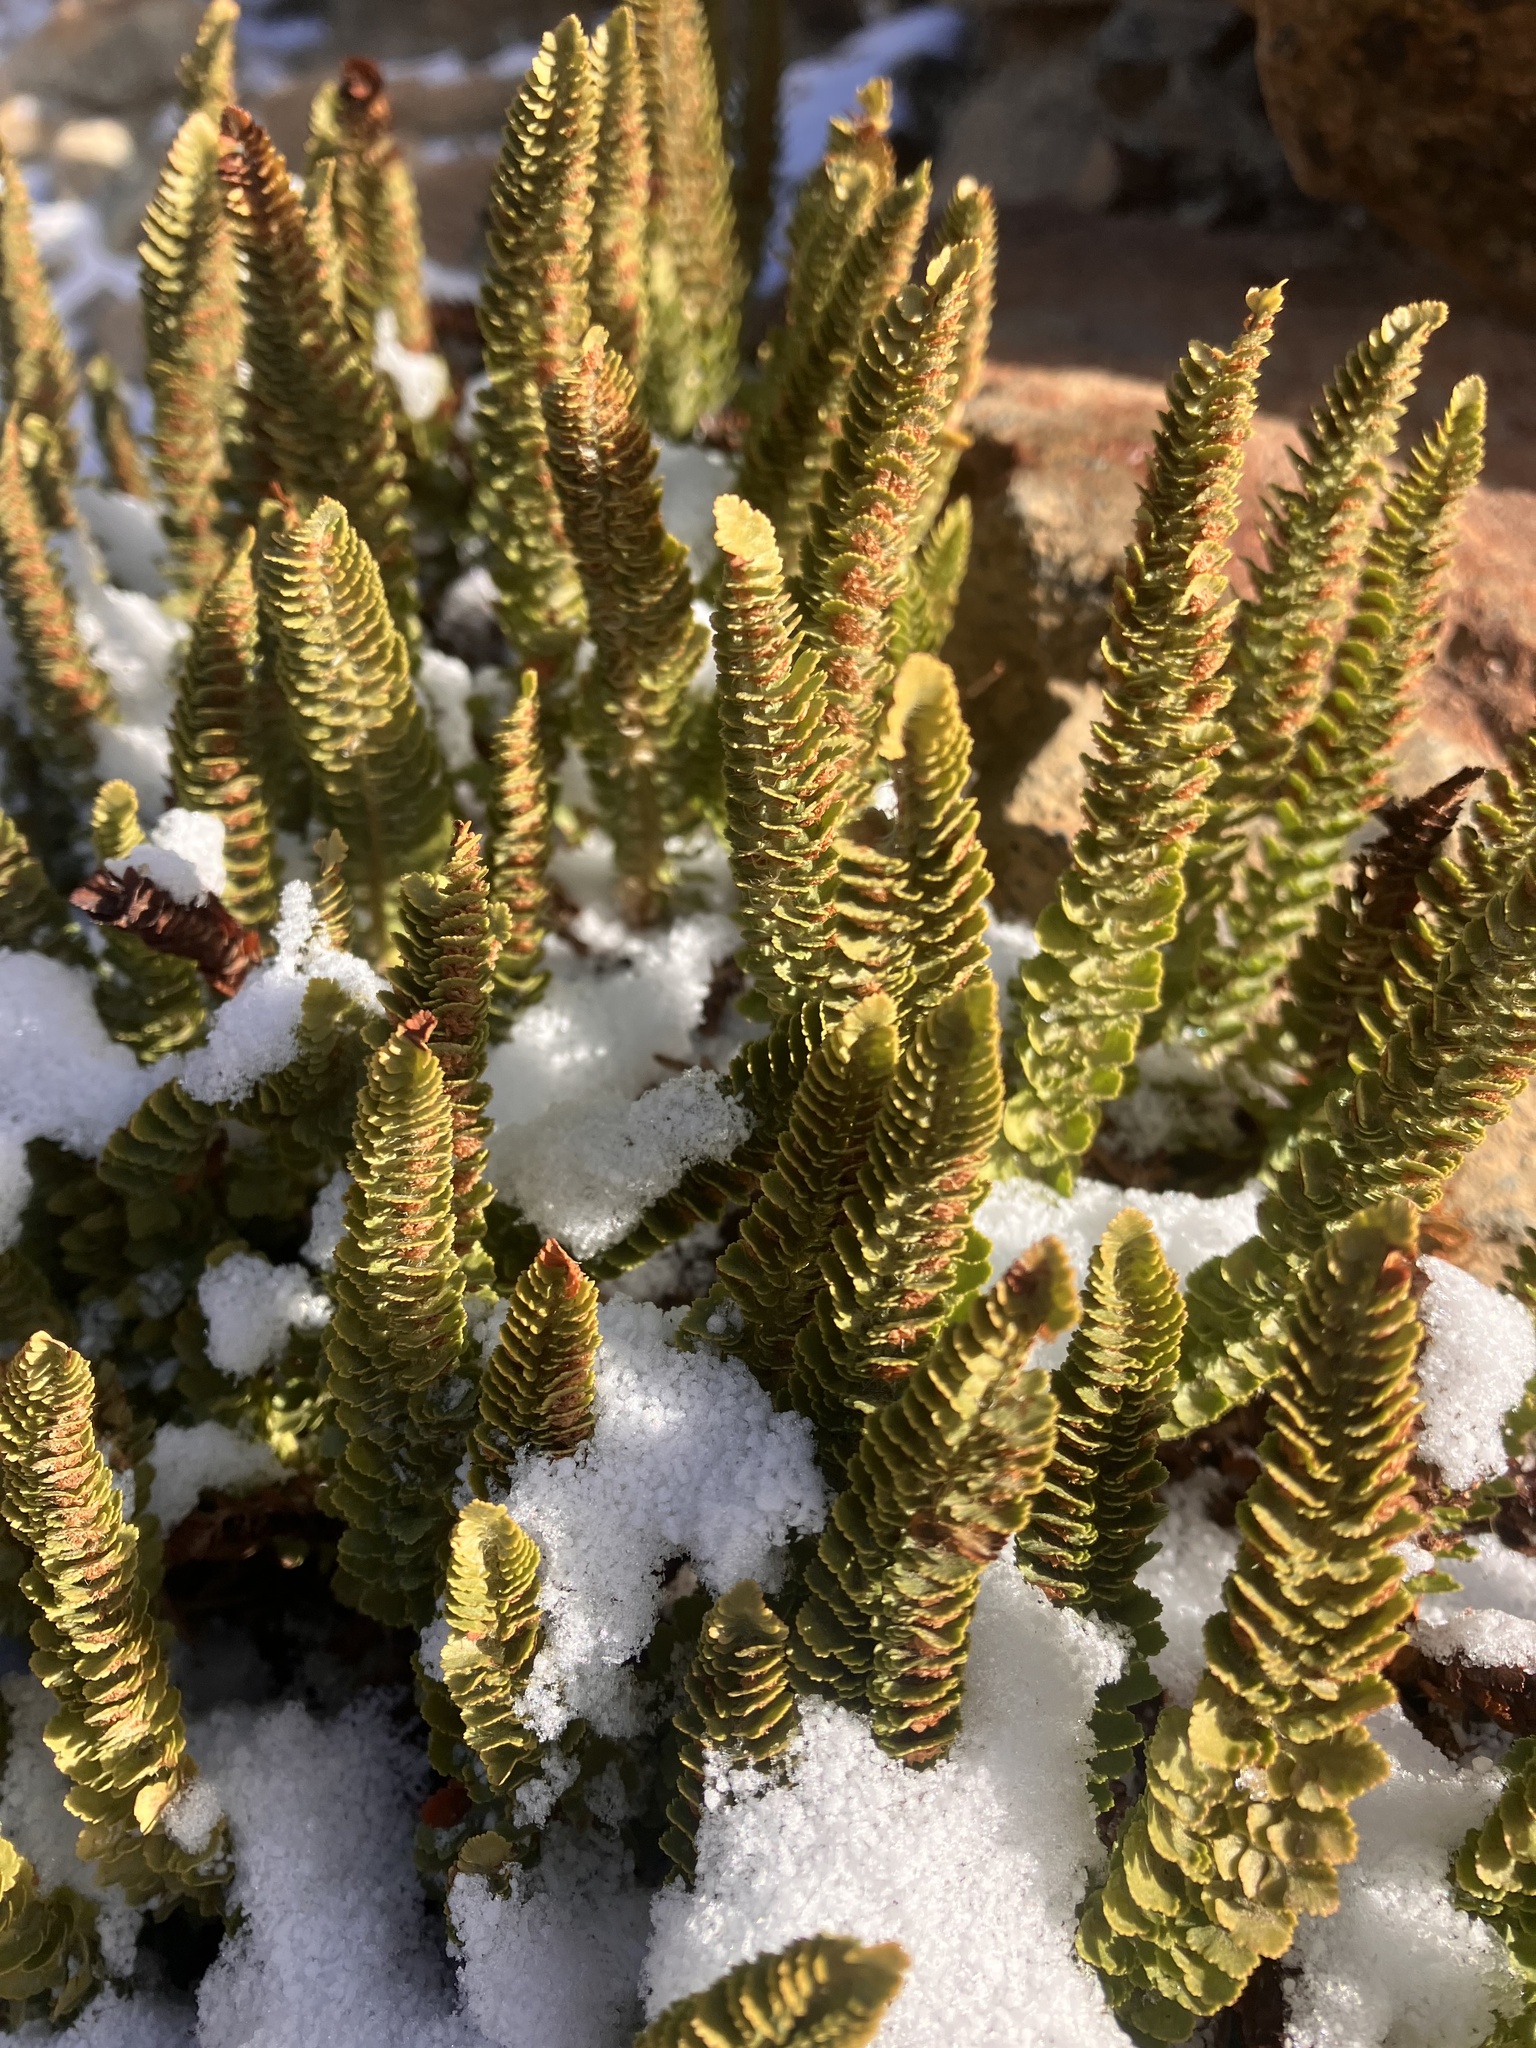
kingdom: Plantae
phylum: Tracheophyta
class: Polypodiopsida
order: Polypodiales
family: Dryopteridaceae
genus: Polystichum
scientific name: Polystichum lemmonii
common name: Lemmon's holly fern
